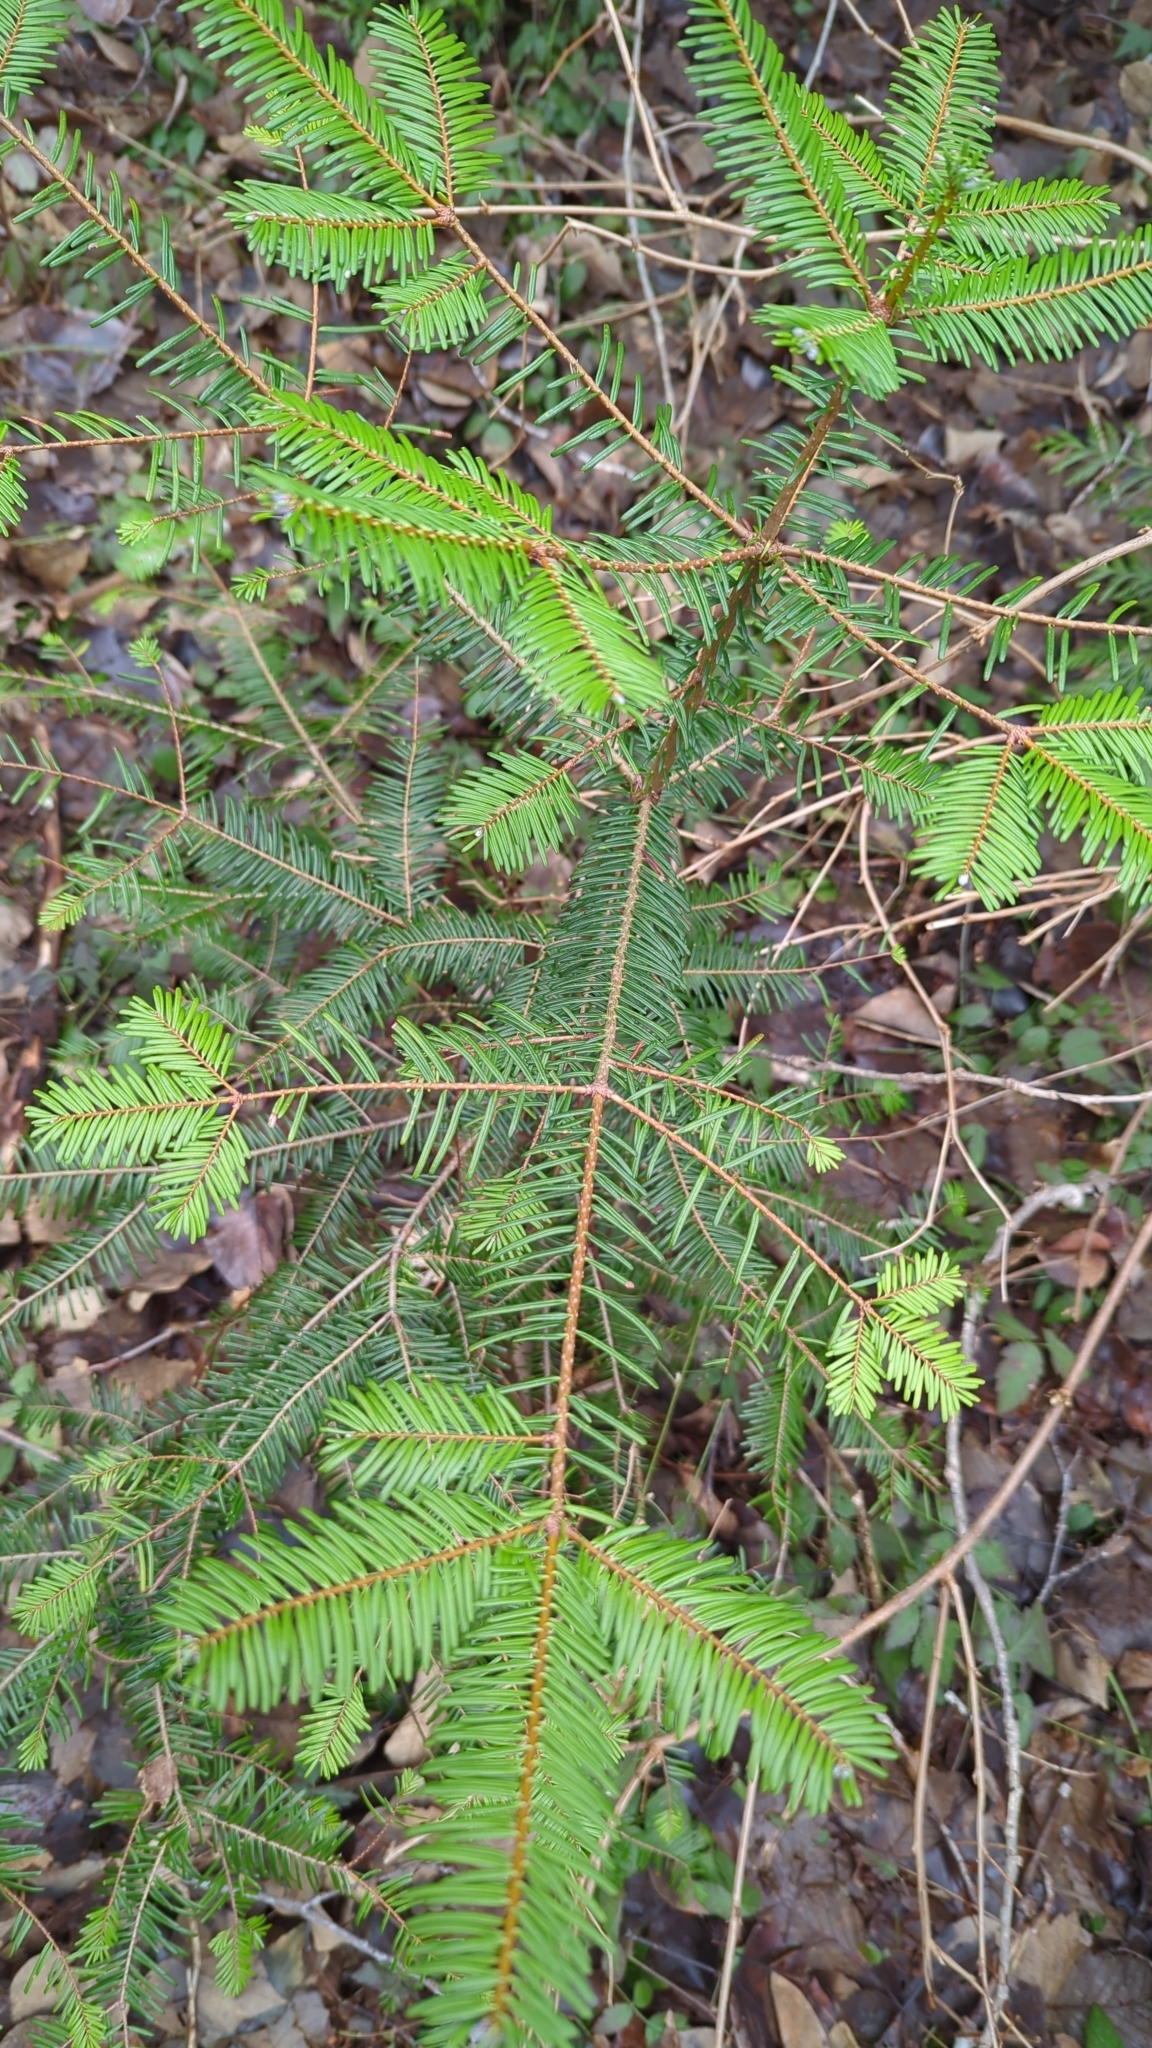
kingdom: Plantae
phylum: Tracheophyta
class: Pinopsida
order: Pinales
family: Pinaceae
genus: Abies
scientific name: Abies grandis
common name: Giant fir
